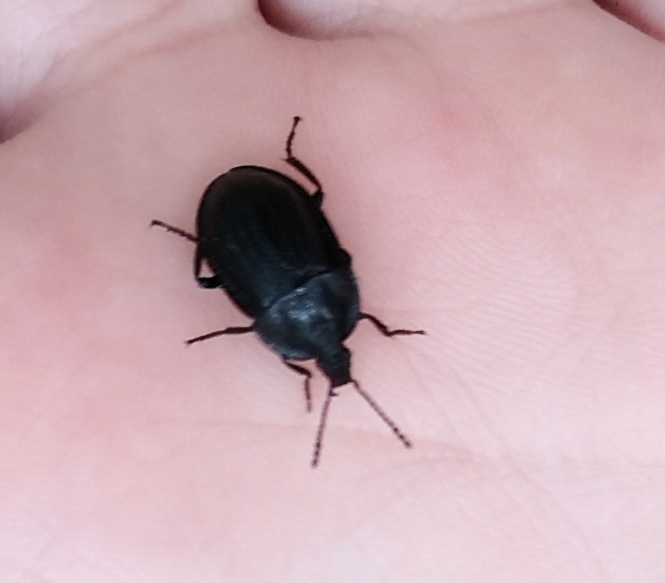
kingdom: Animalia
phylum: Arthropoda
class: Insecta
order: Coleoptera
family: Staphylinidae
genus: Silpha
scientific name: Silpha atrata
